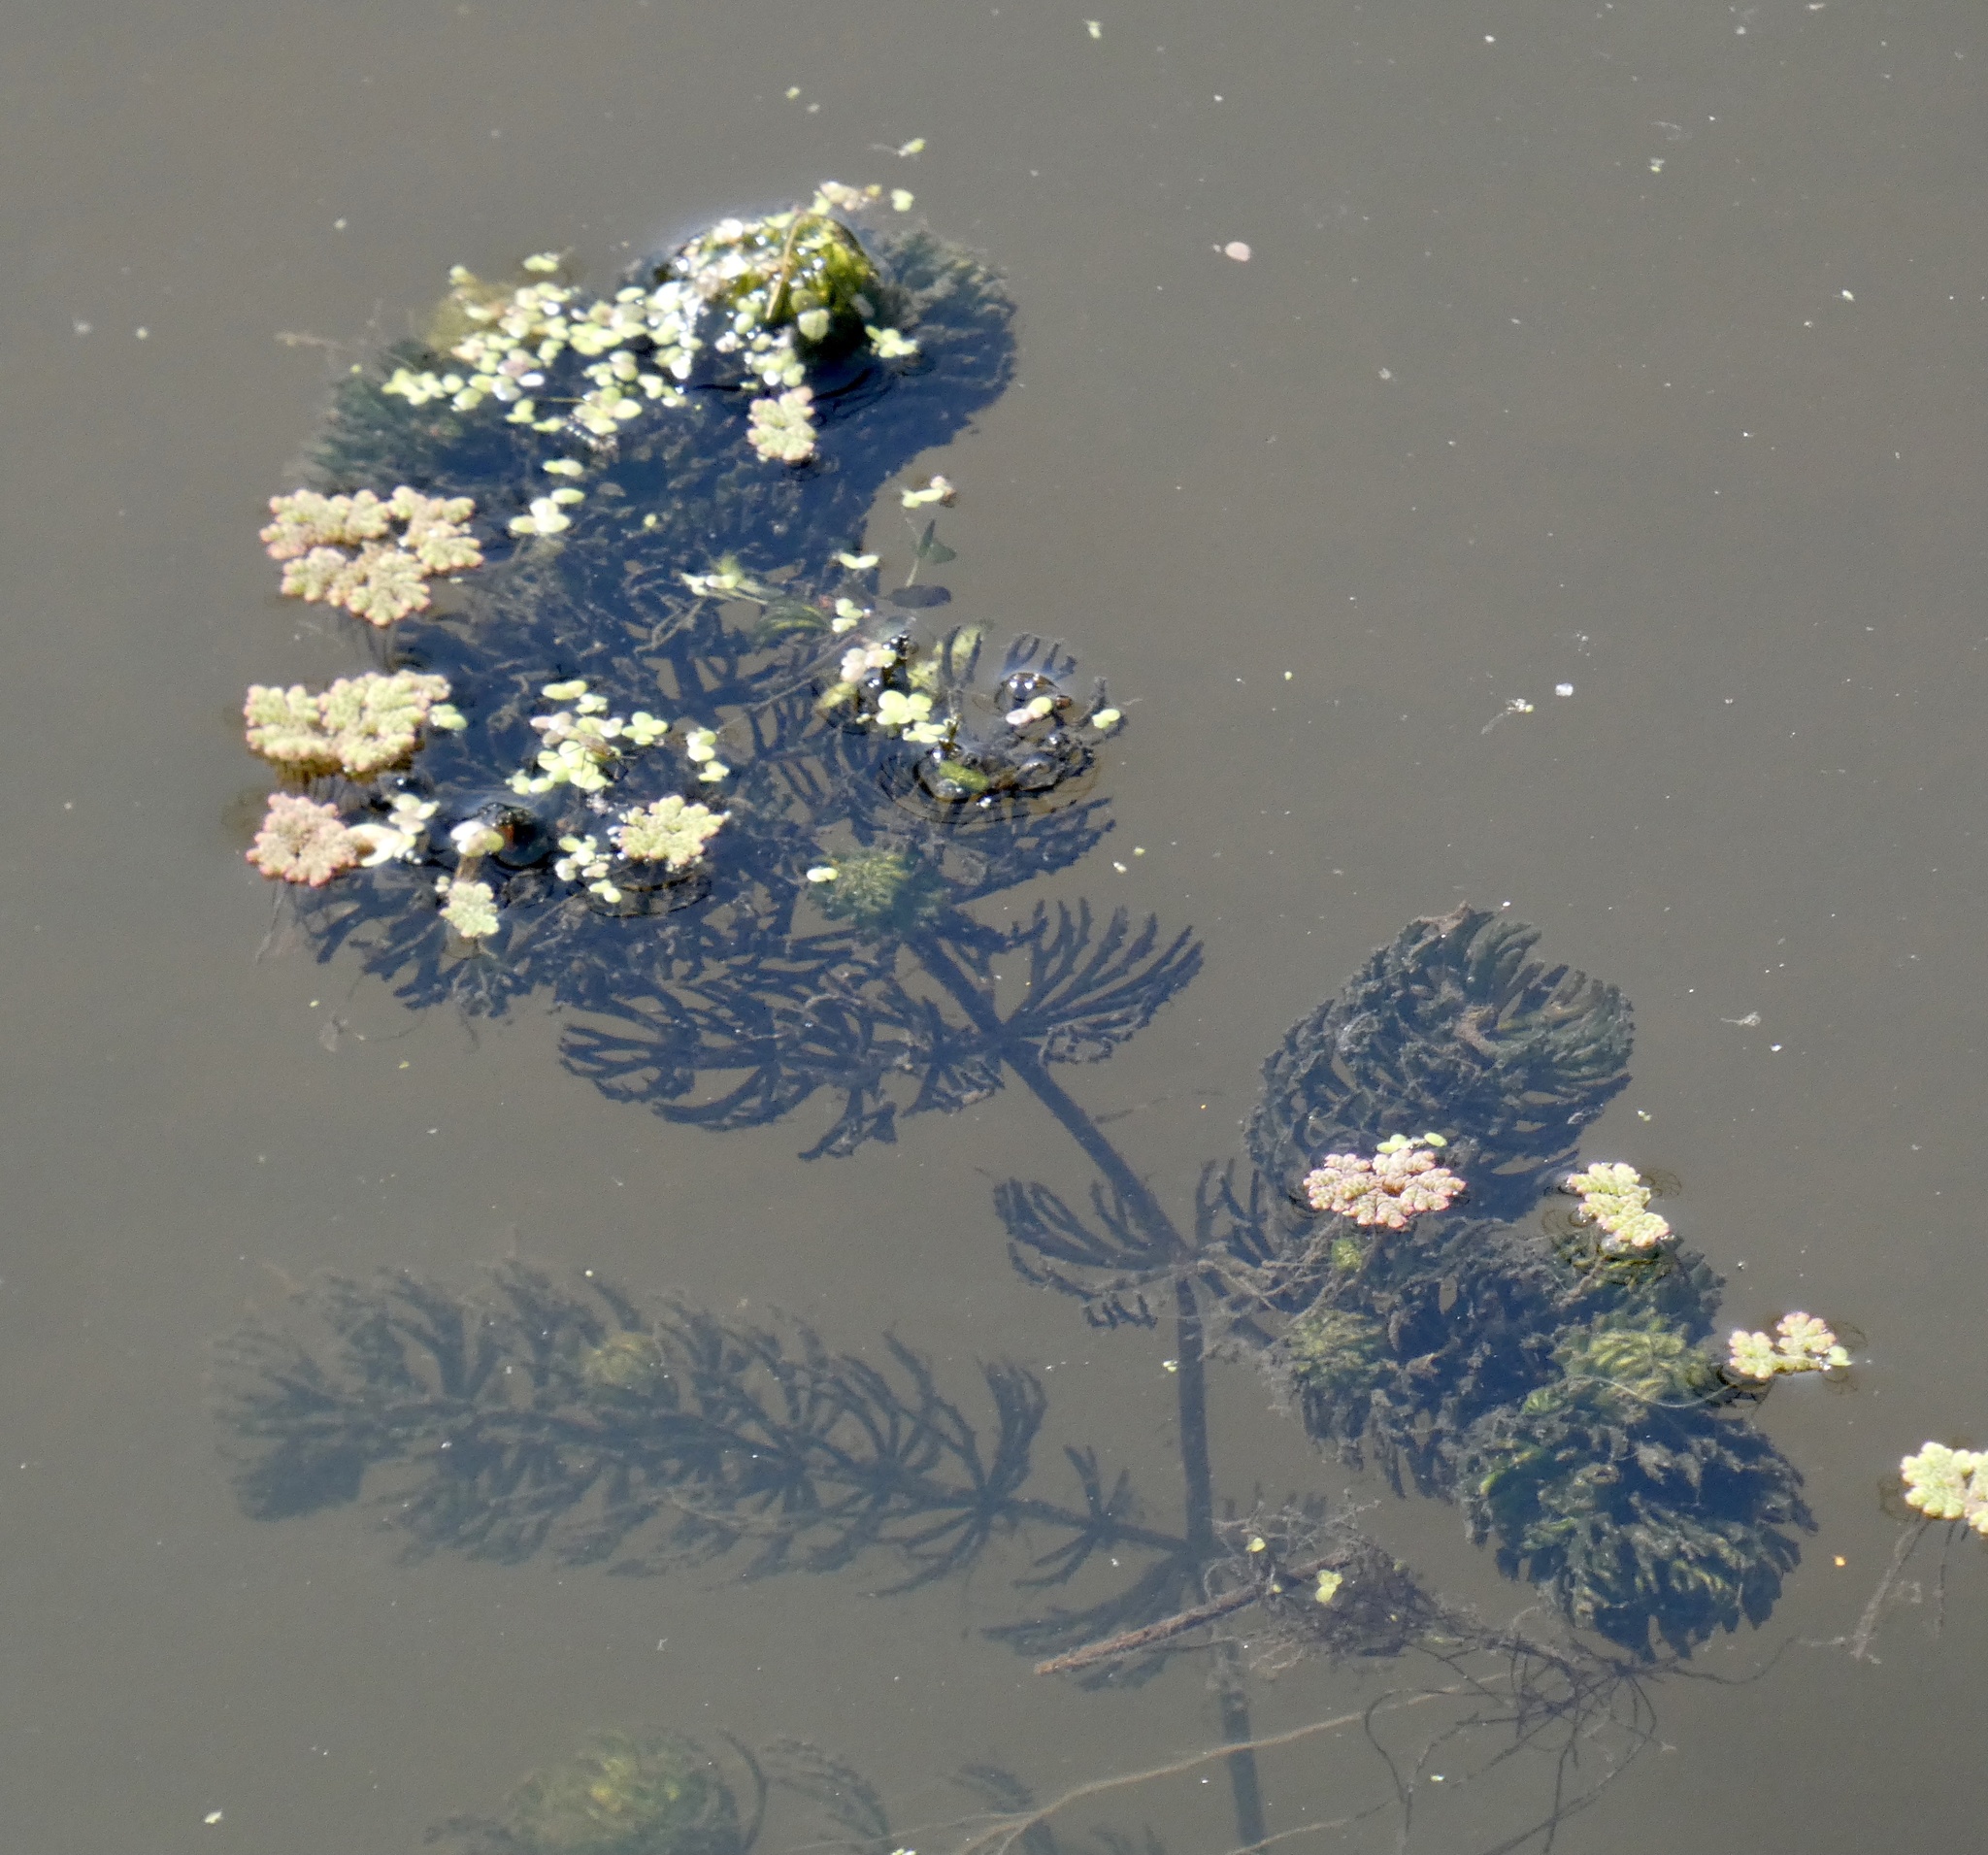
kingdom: Plantae
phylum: Tracheophyta
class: Magnoliopsida
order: Ceratophyllales
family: Ceratophyllaceae
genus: Ceratophyllum
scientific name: Ceratophyllum demersum
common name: Rigid hornwort
